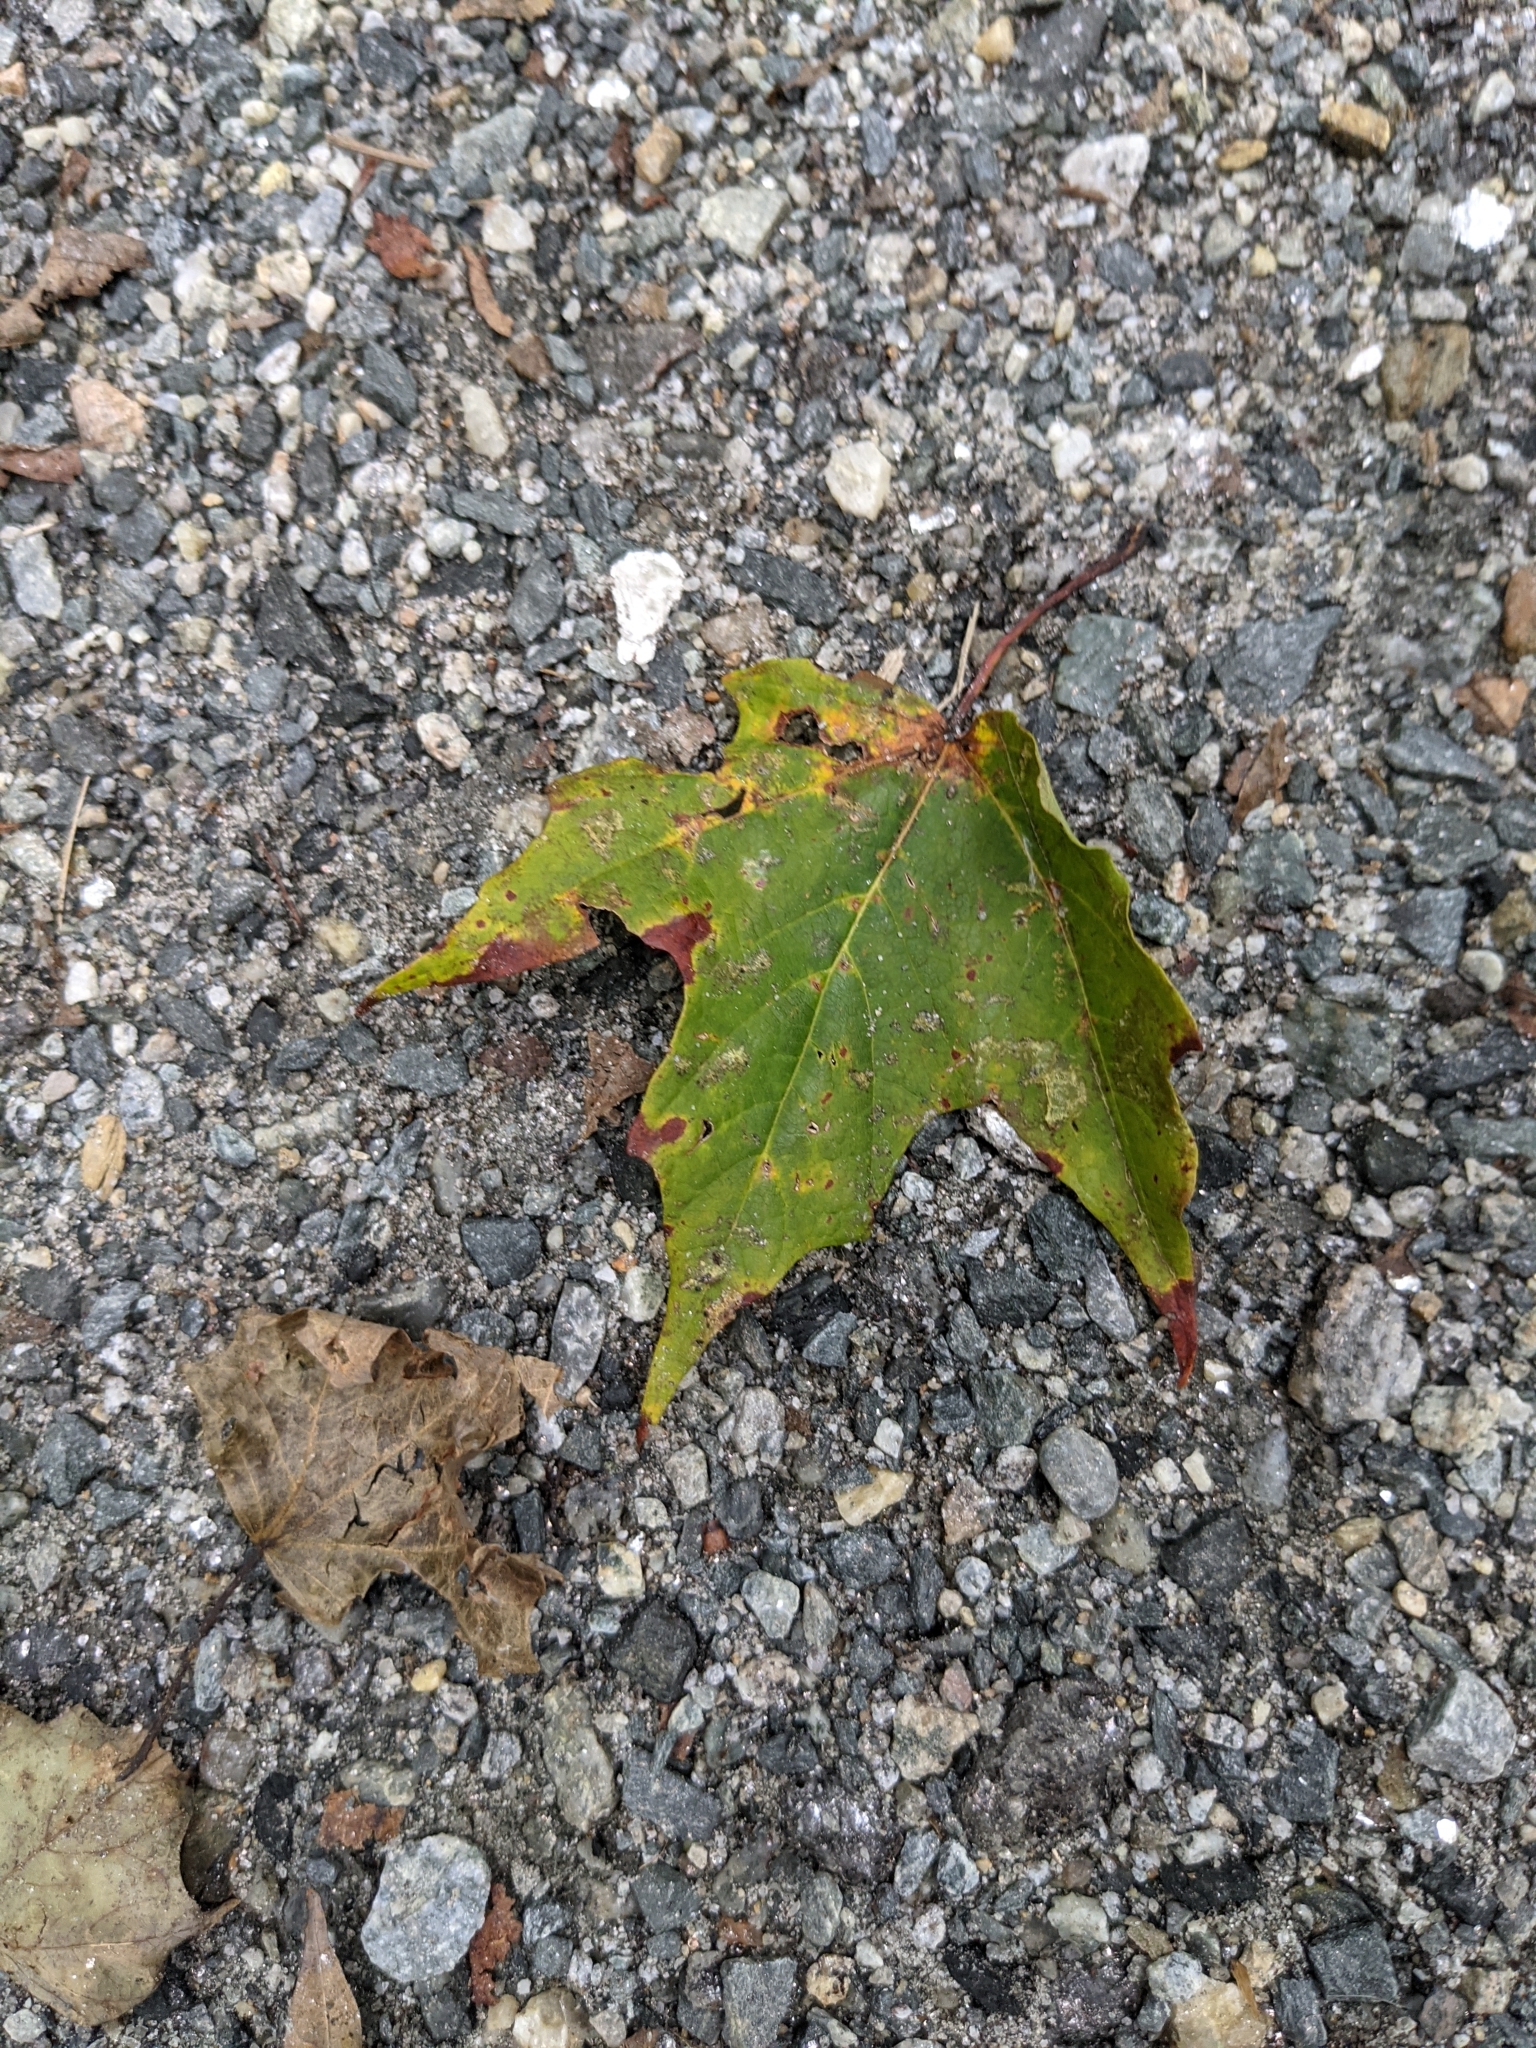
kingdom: Plantae
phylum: Tracheophyta
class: Magnoliopsida
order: Sapindales
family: Sapindaceae
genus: Acer
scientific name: Acer rubrum
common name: Red maple
